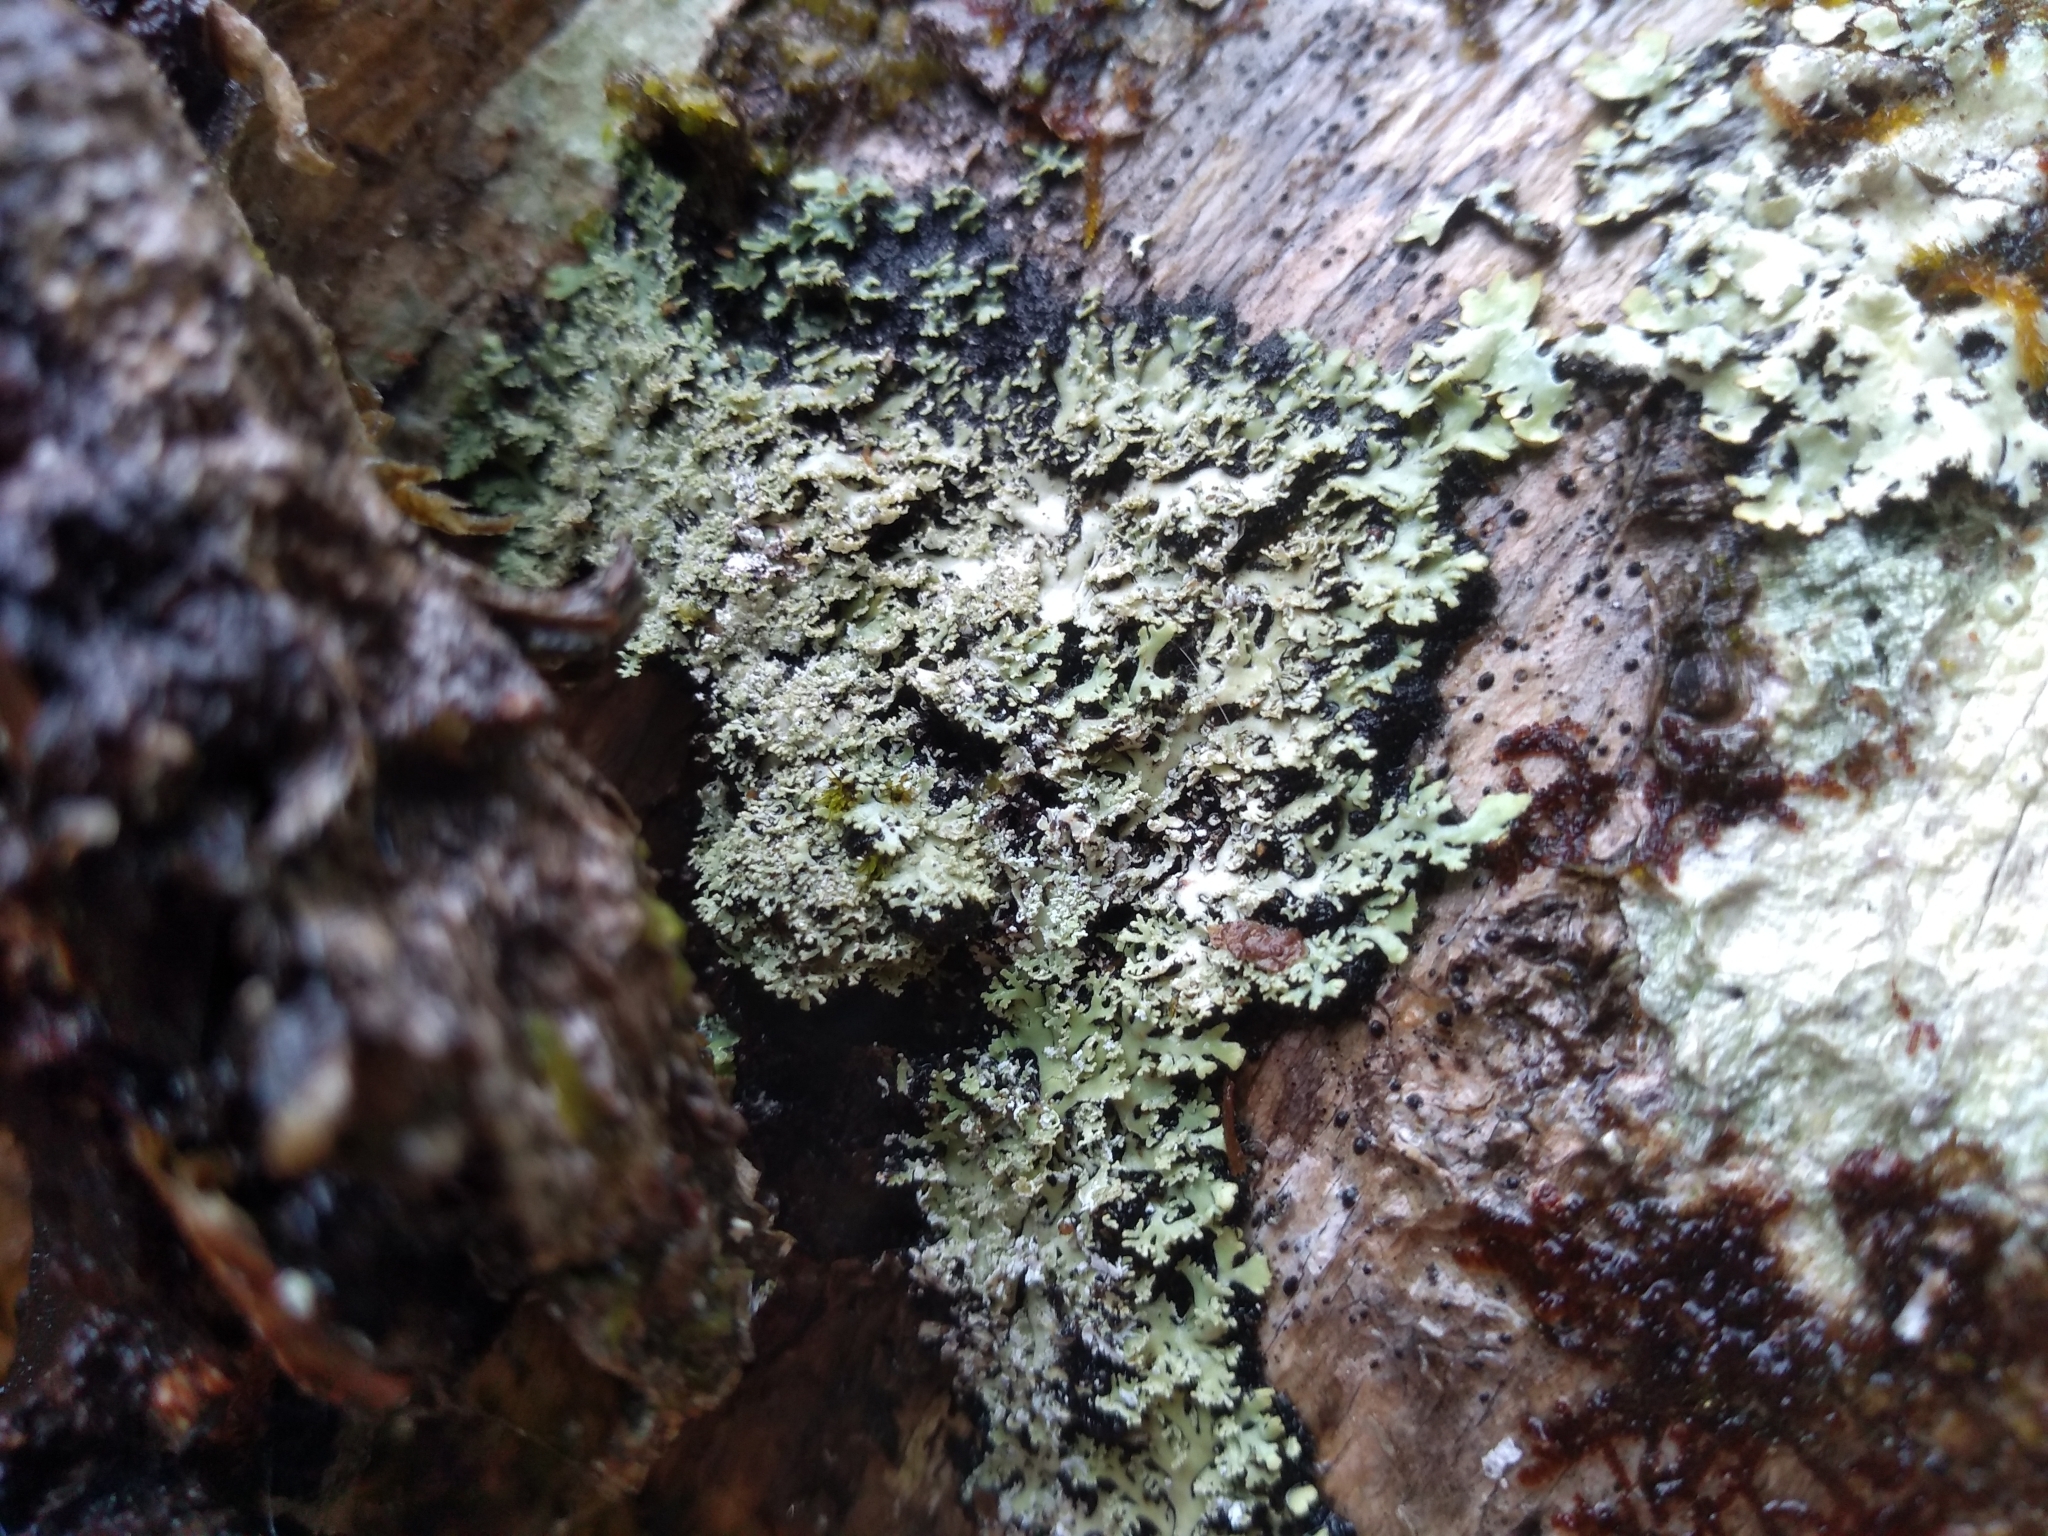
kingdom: Fungi
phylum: Ascomycota
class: Lecanoromycetes
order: Caliciales
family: Physciaceae
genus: Polyblastidium
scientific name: Polyblastidium squamulosum
